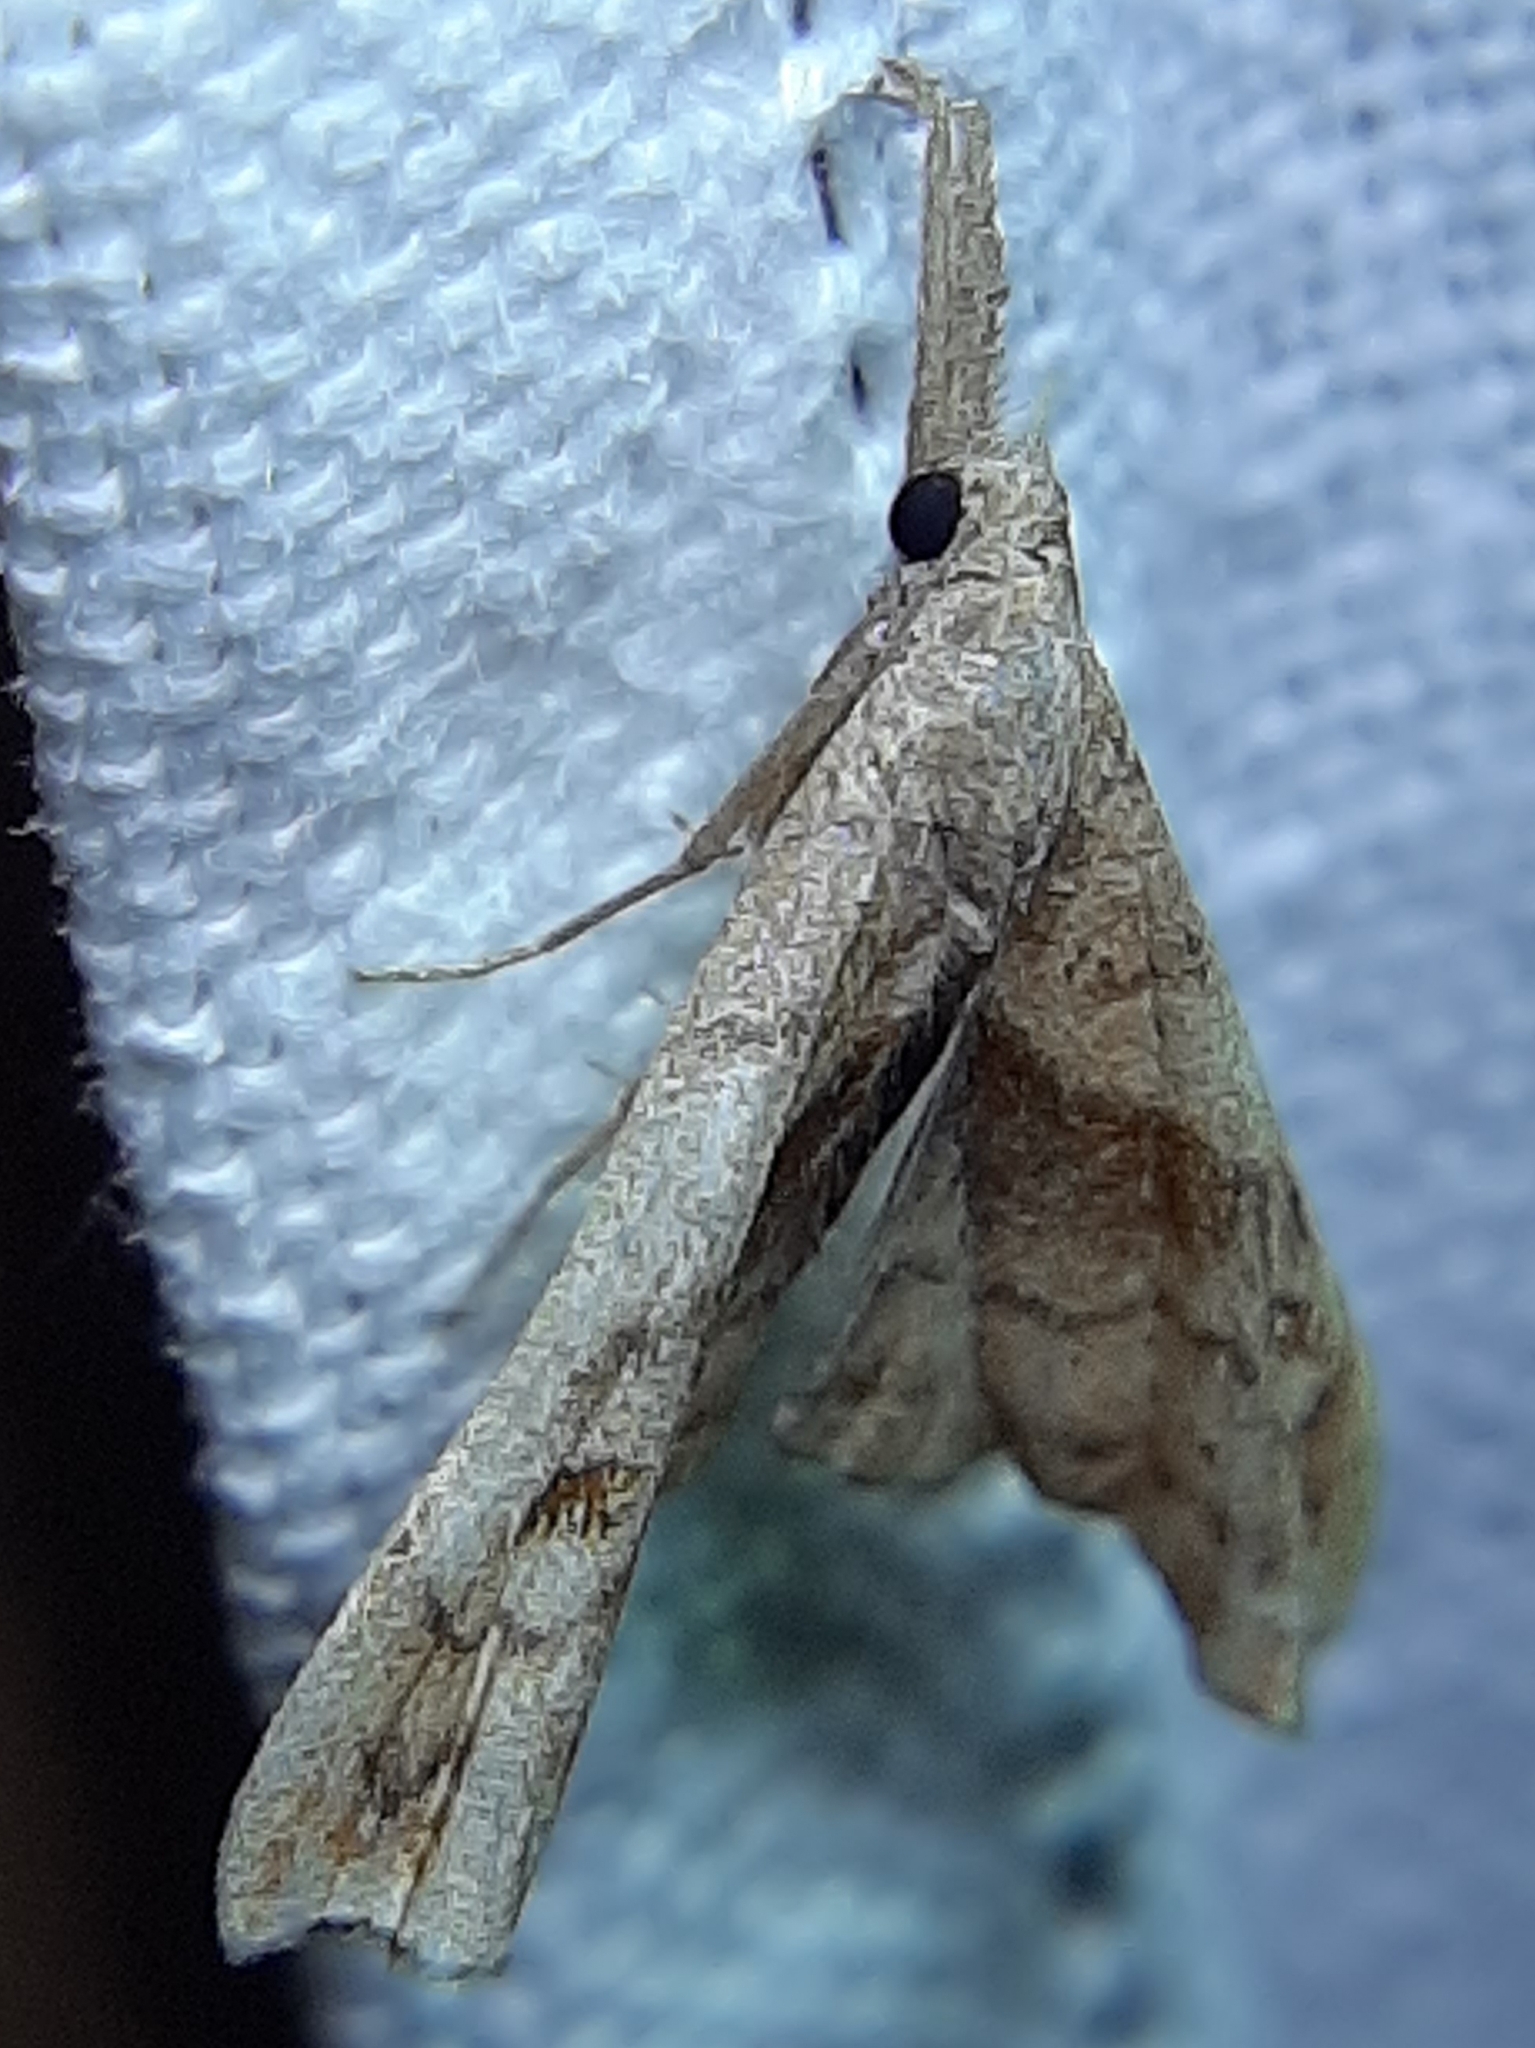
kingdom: Animalia
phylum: Arthropoda
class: Insecta
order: Lepidoptera
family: Erebidae
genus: Palthis
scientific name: Palthis angulalis
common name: Dark-spotted palthis moth
